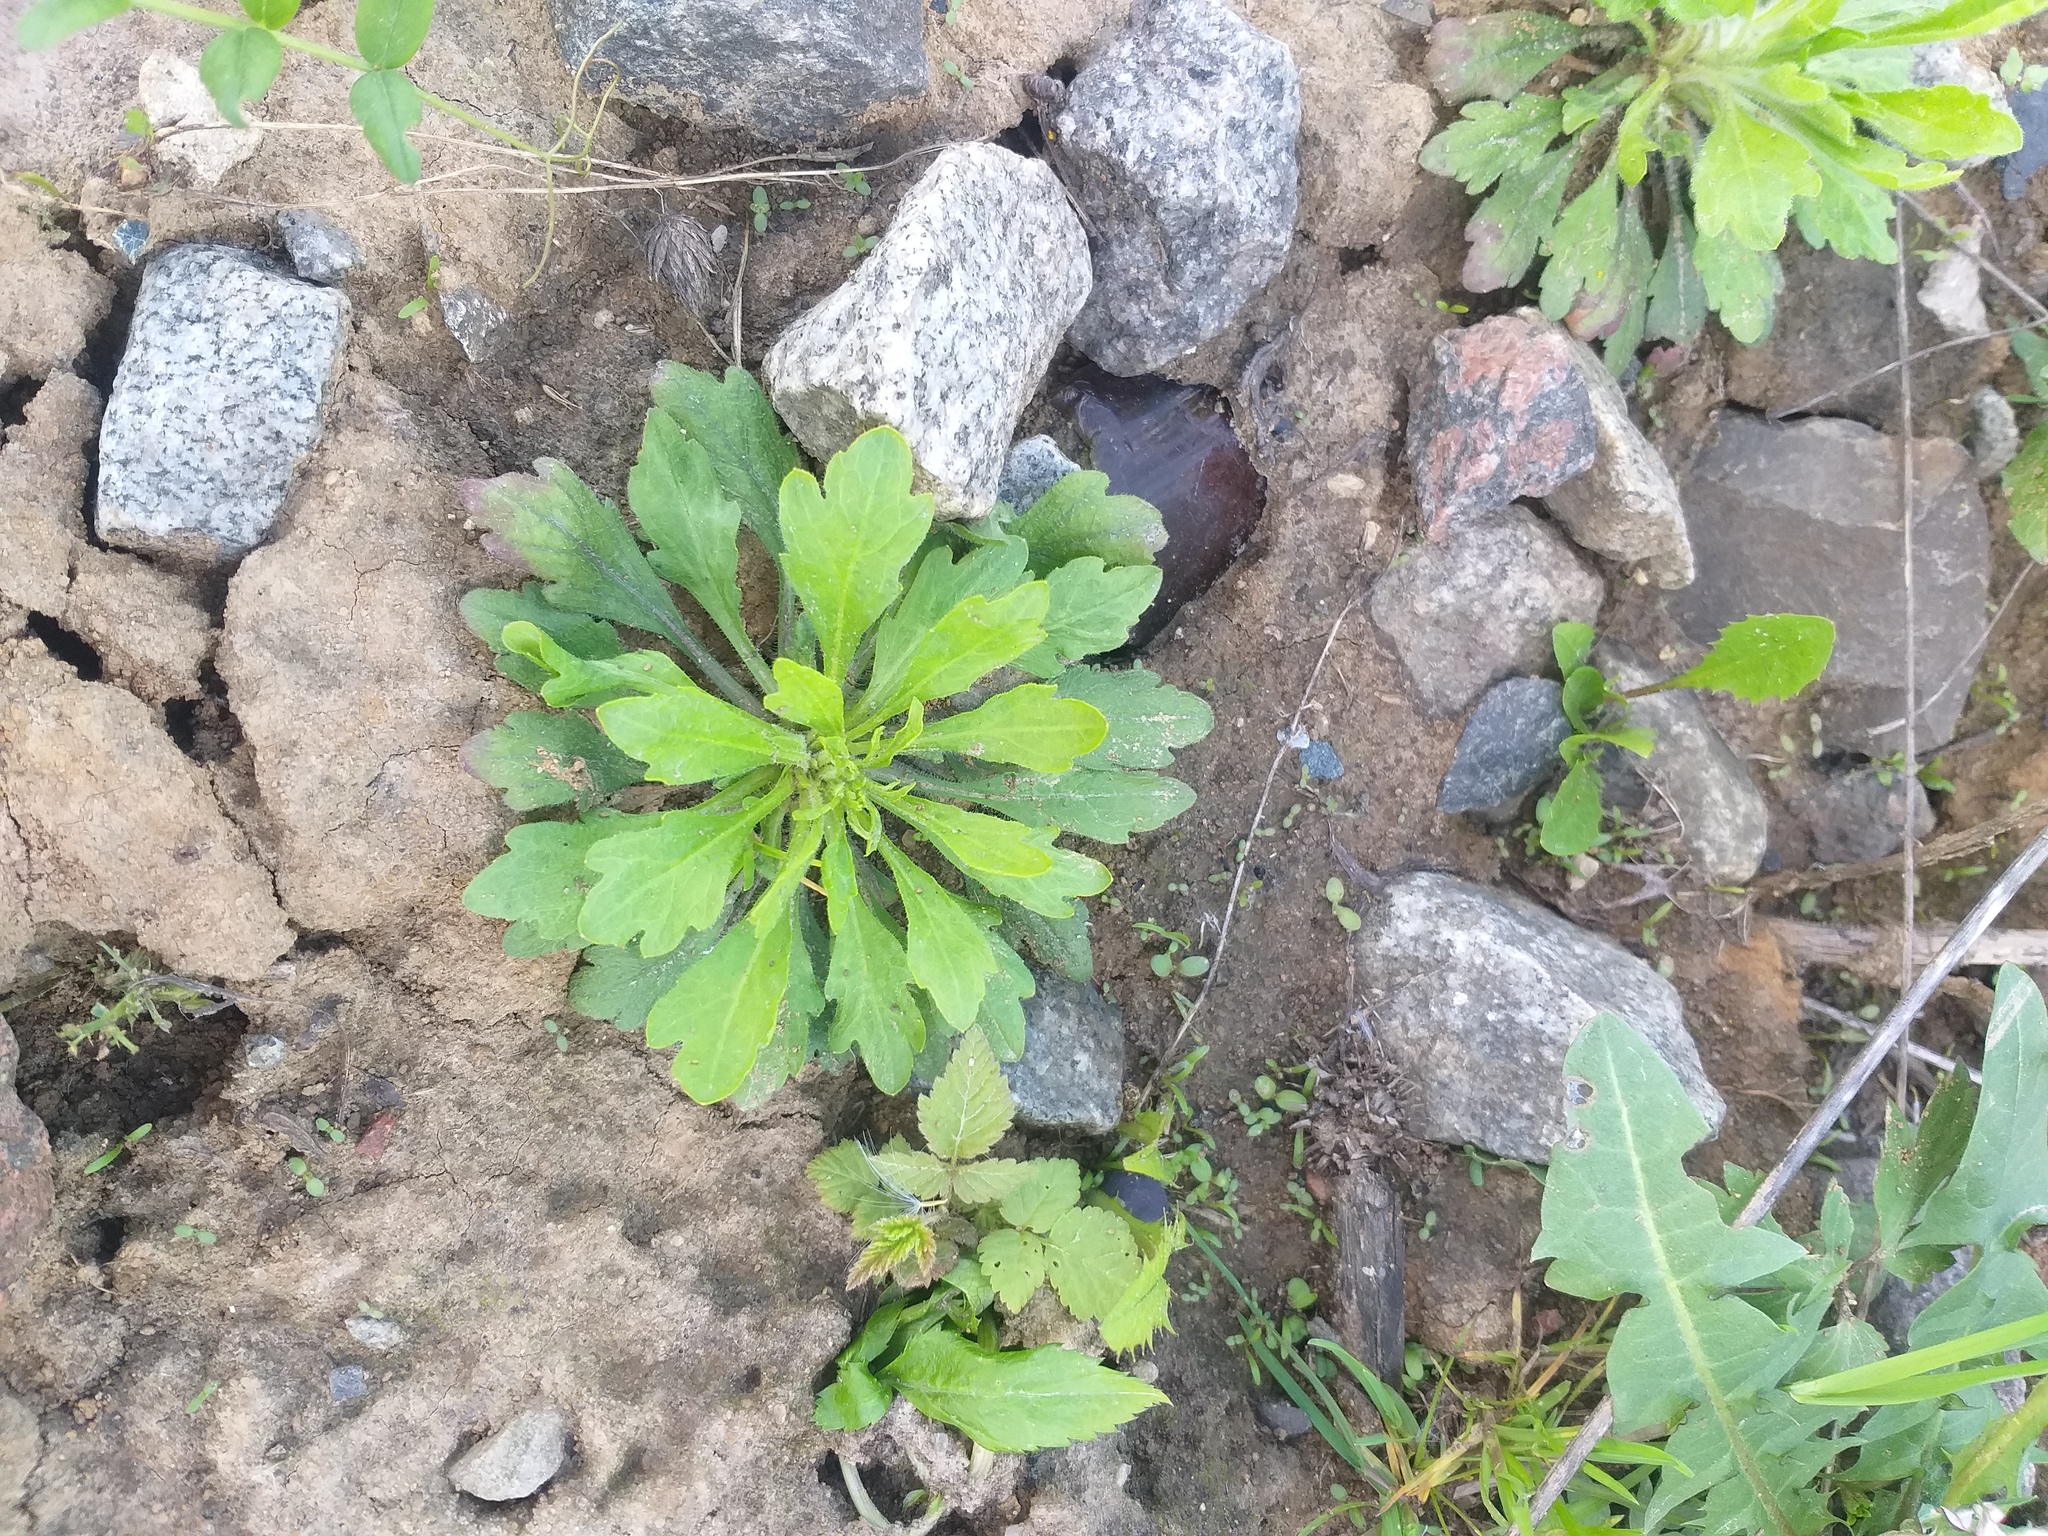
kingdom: Plantae
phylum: Tracheophyta
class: Magnoliopsida
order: Asterales
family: Asteraceae
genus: Erigeron
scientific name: Erigeron canadensis
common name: Canadian fleabane
